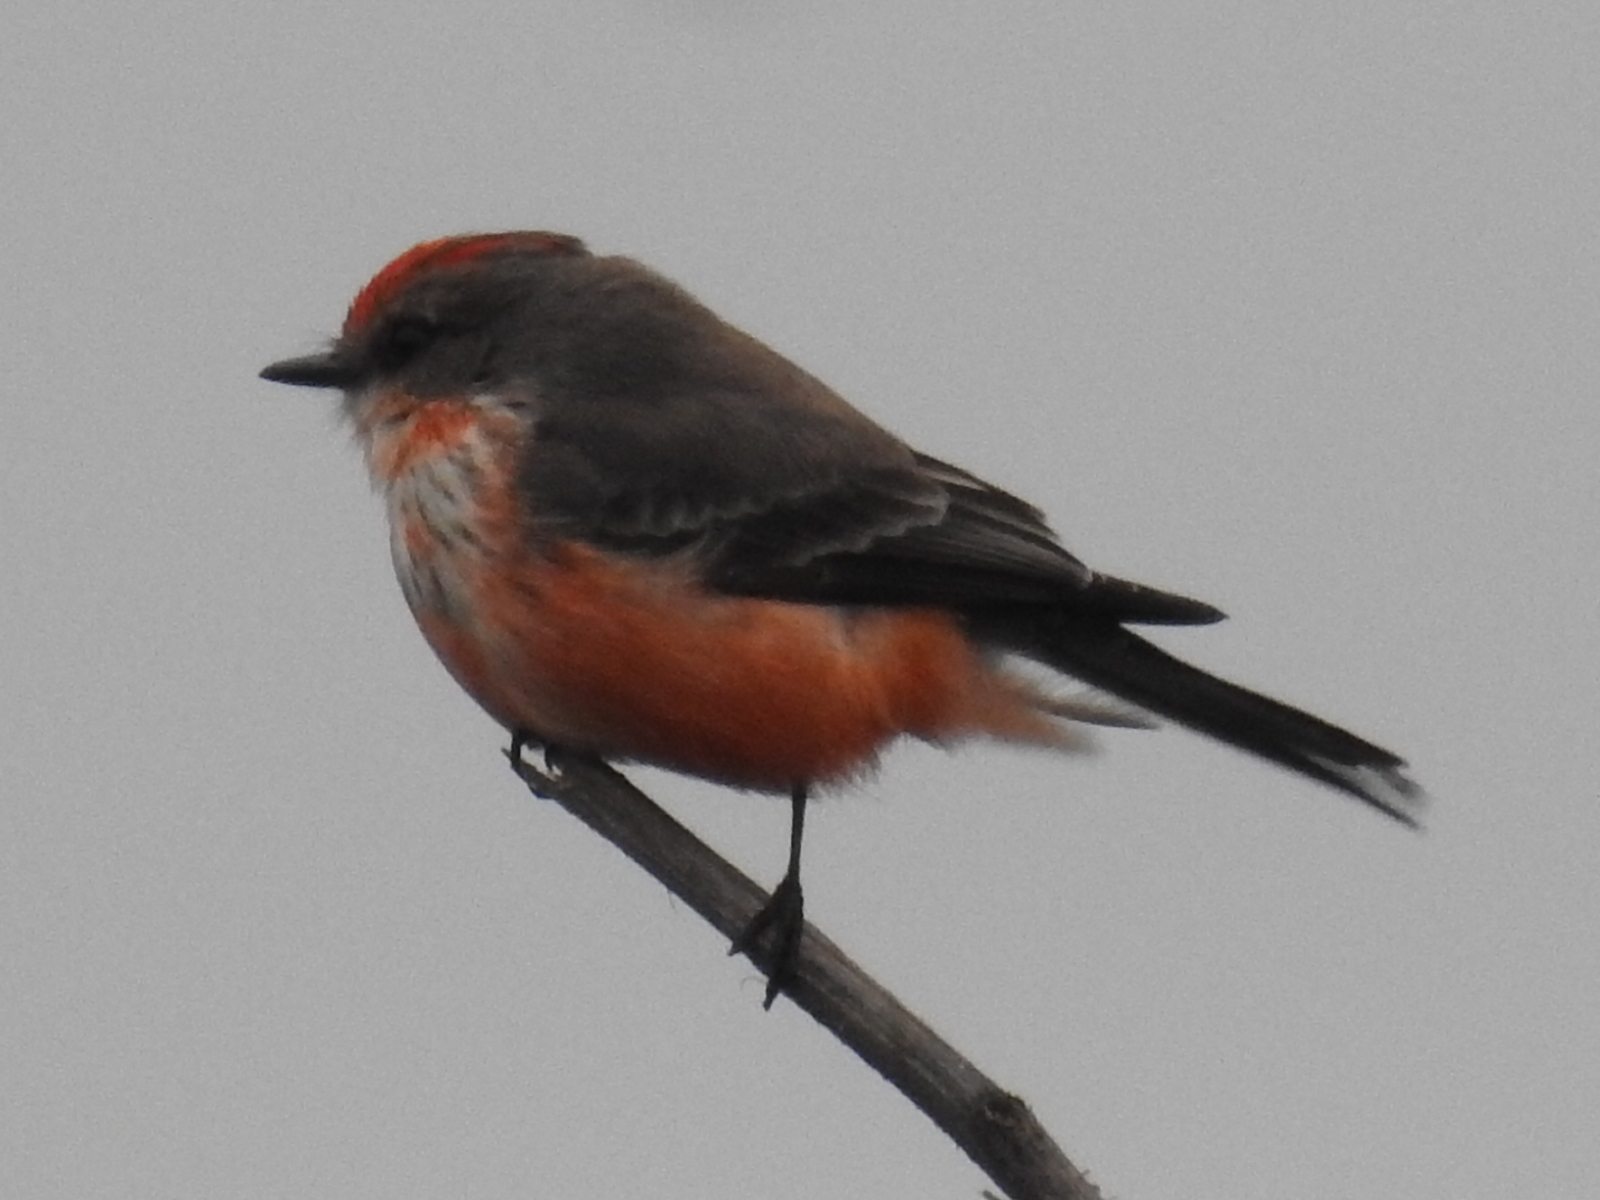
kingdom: Animalia
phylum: Chordata
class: Aves
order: Passeriformes
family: Tyrannidae
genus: Pyrocephalus
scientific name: Pyrocephalus rubinus
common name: Vermilion flycatcher
